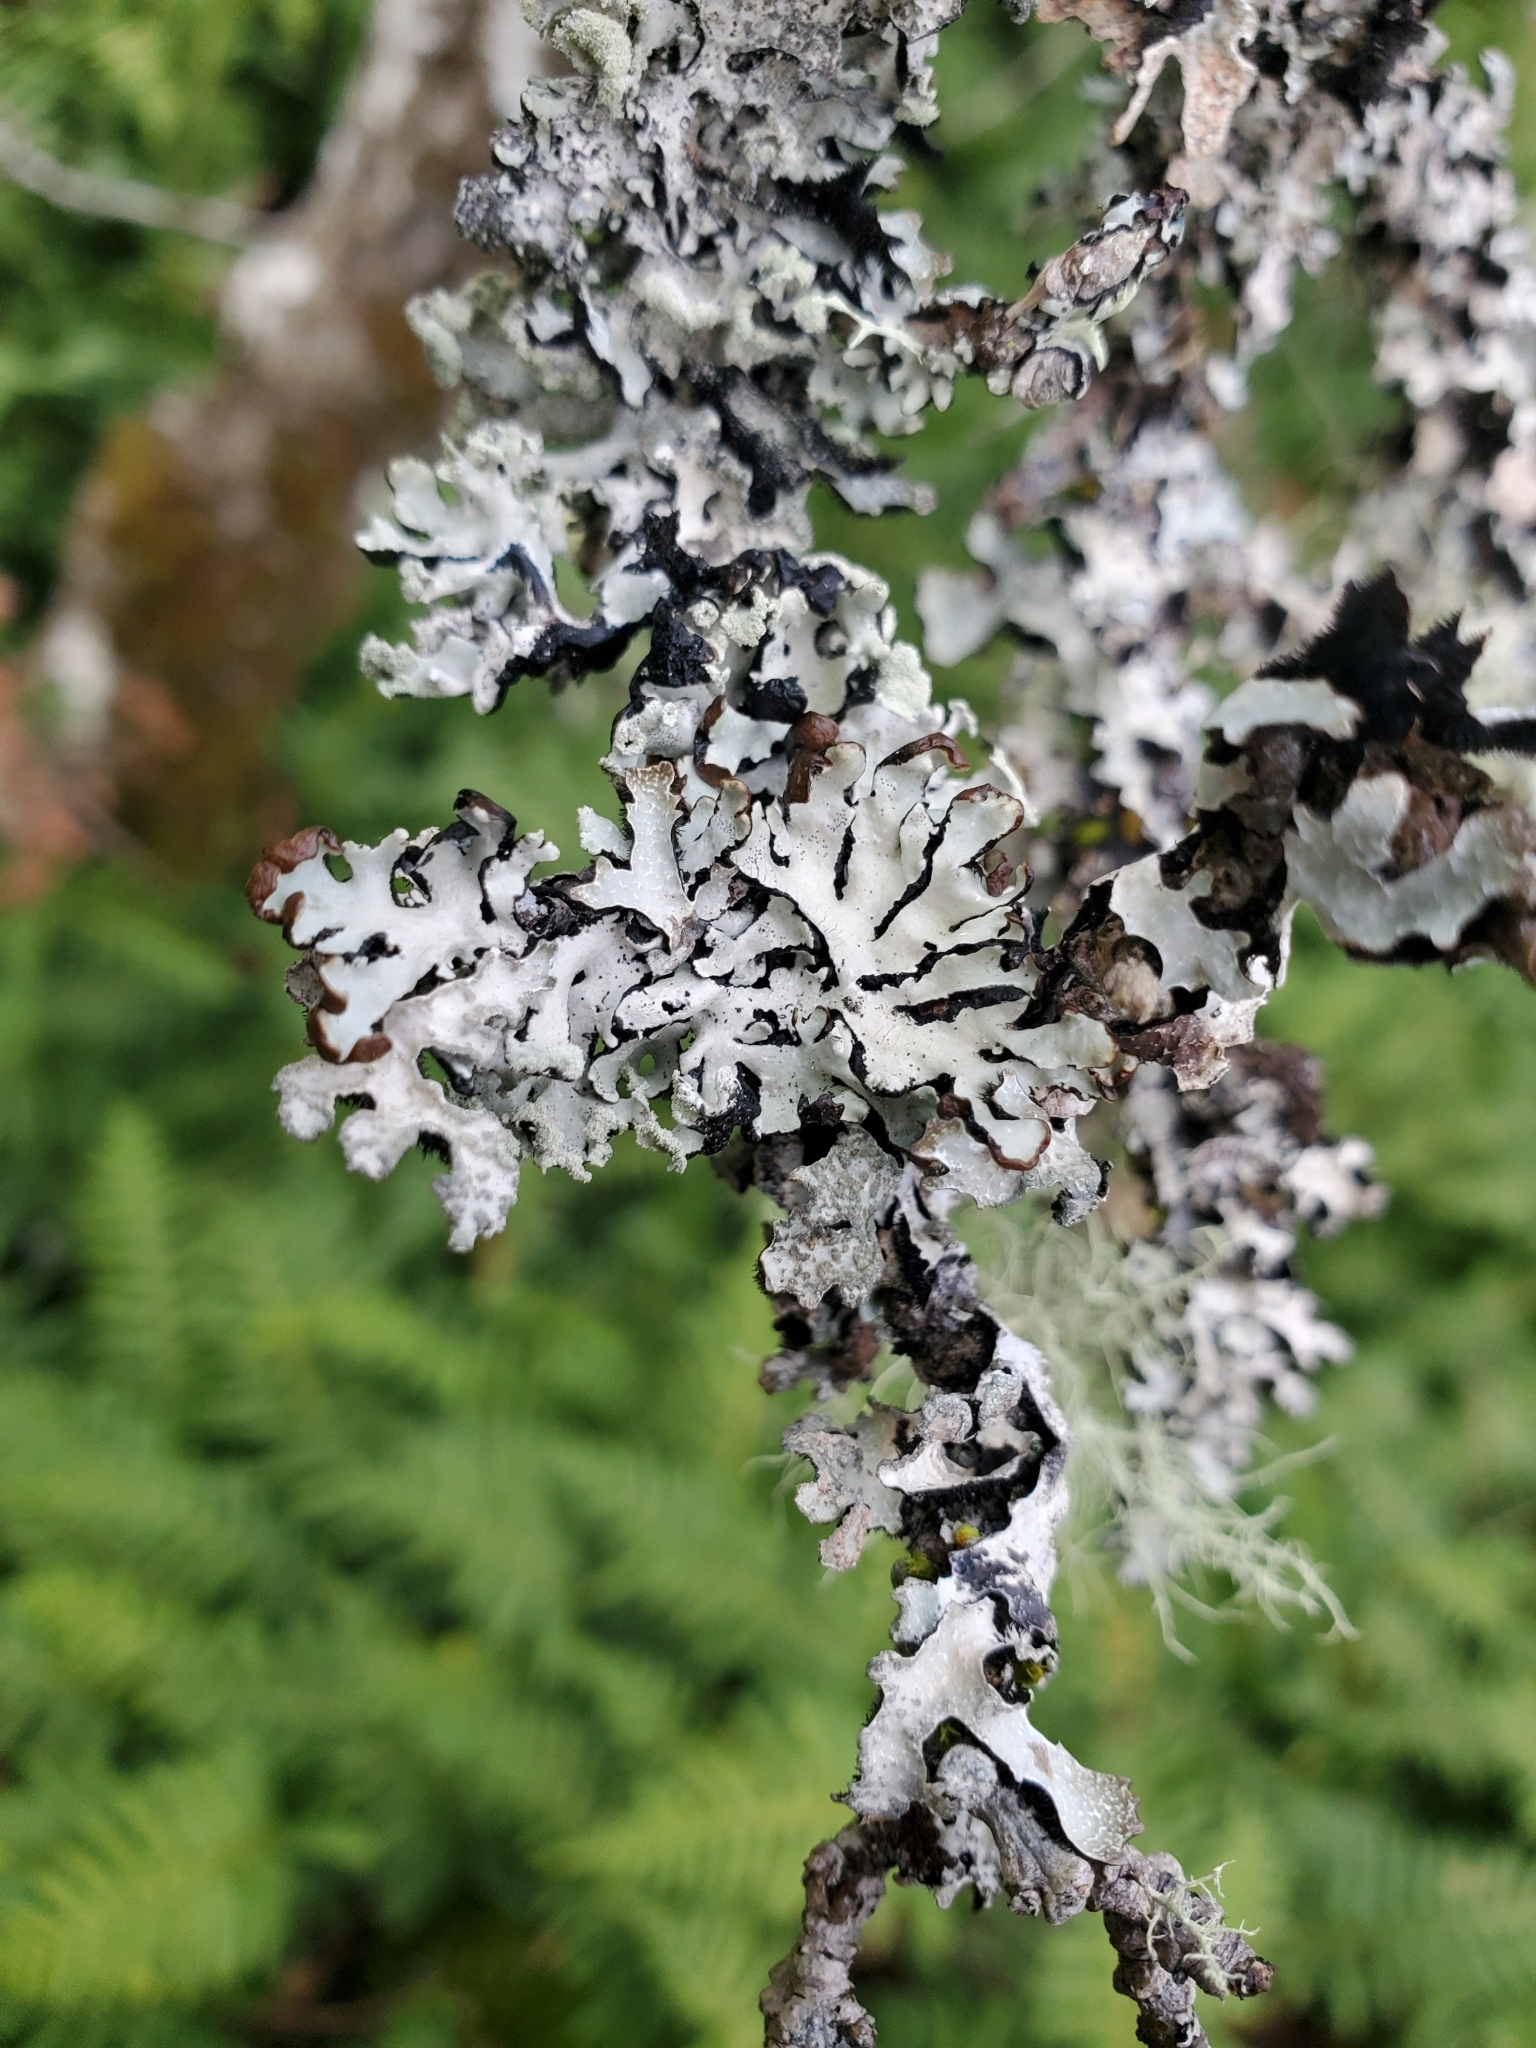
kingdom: Fungi
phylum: Ascomycota
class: Lecanoromycetes
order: Lecanorales
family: Parmeliaceae
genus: Hypogymnia
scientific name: Hypogymnia physodes
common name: Dark crottle
